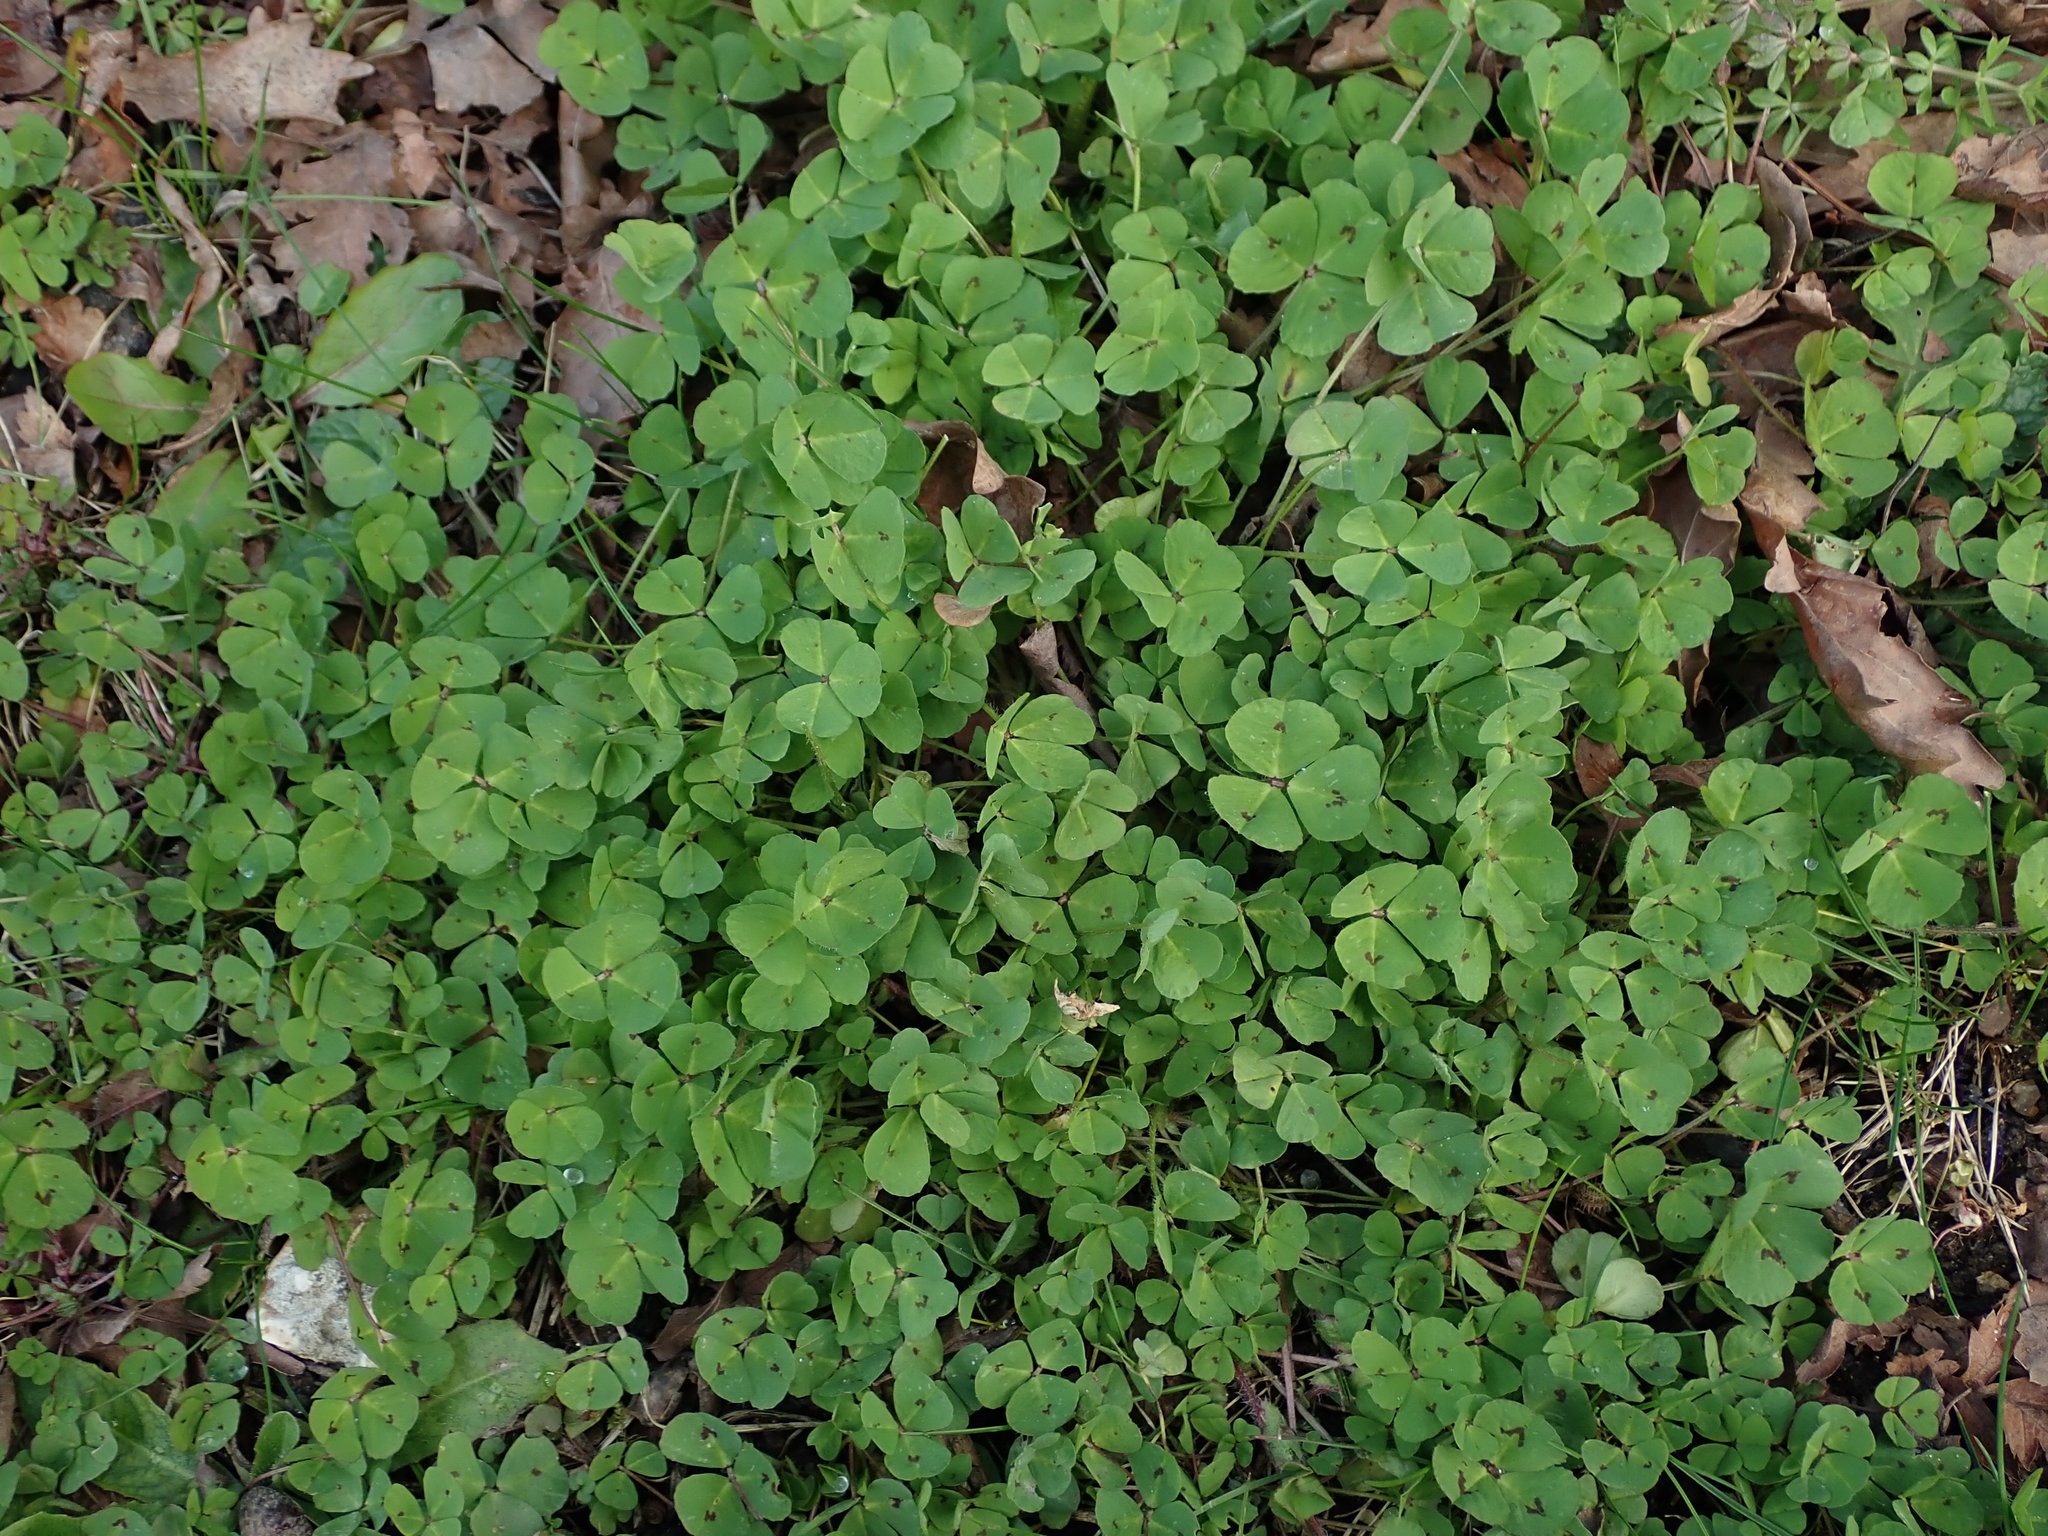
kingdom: Plantae
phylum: Tracheophyta
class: Magnoliopsida
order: Fabales
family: Fabaceae
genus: Medicago
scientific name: Medicago arabica
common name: Spotted medick
